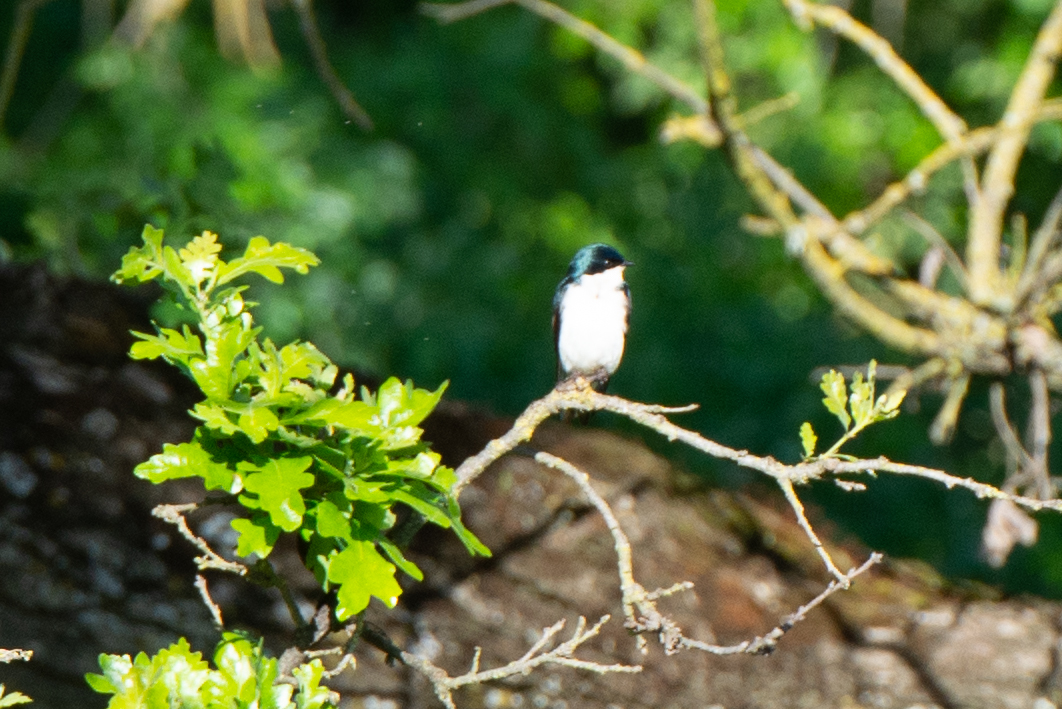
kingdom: Animalia
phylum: Chordata
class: Aves
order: Passeriformes
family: Hirundinidae
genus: Tachycineta
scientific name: Tachycineta bicolor
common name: Tree swallow
